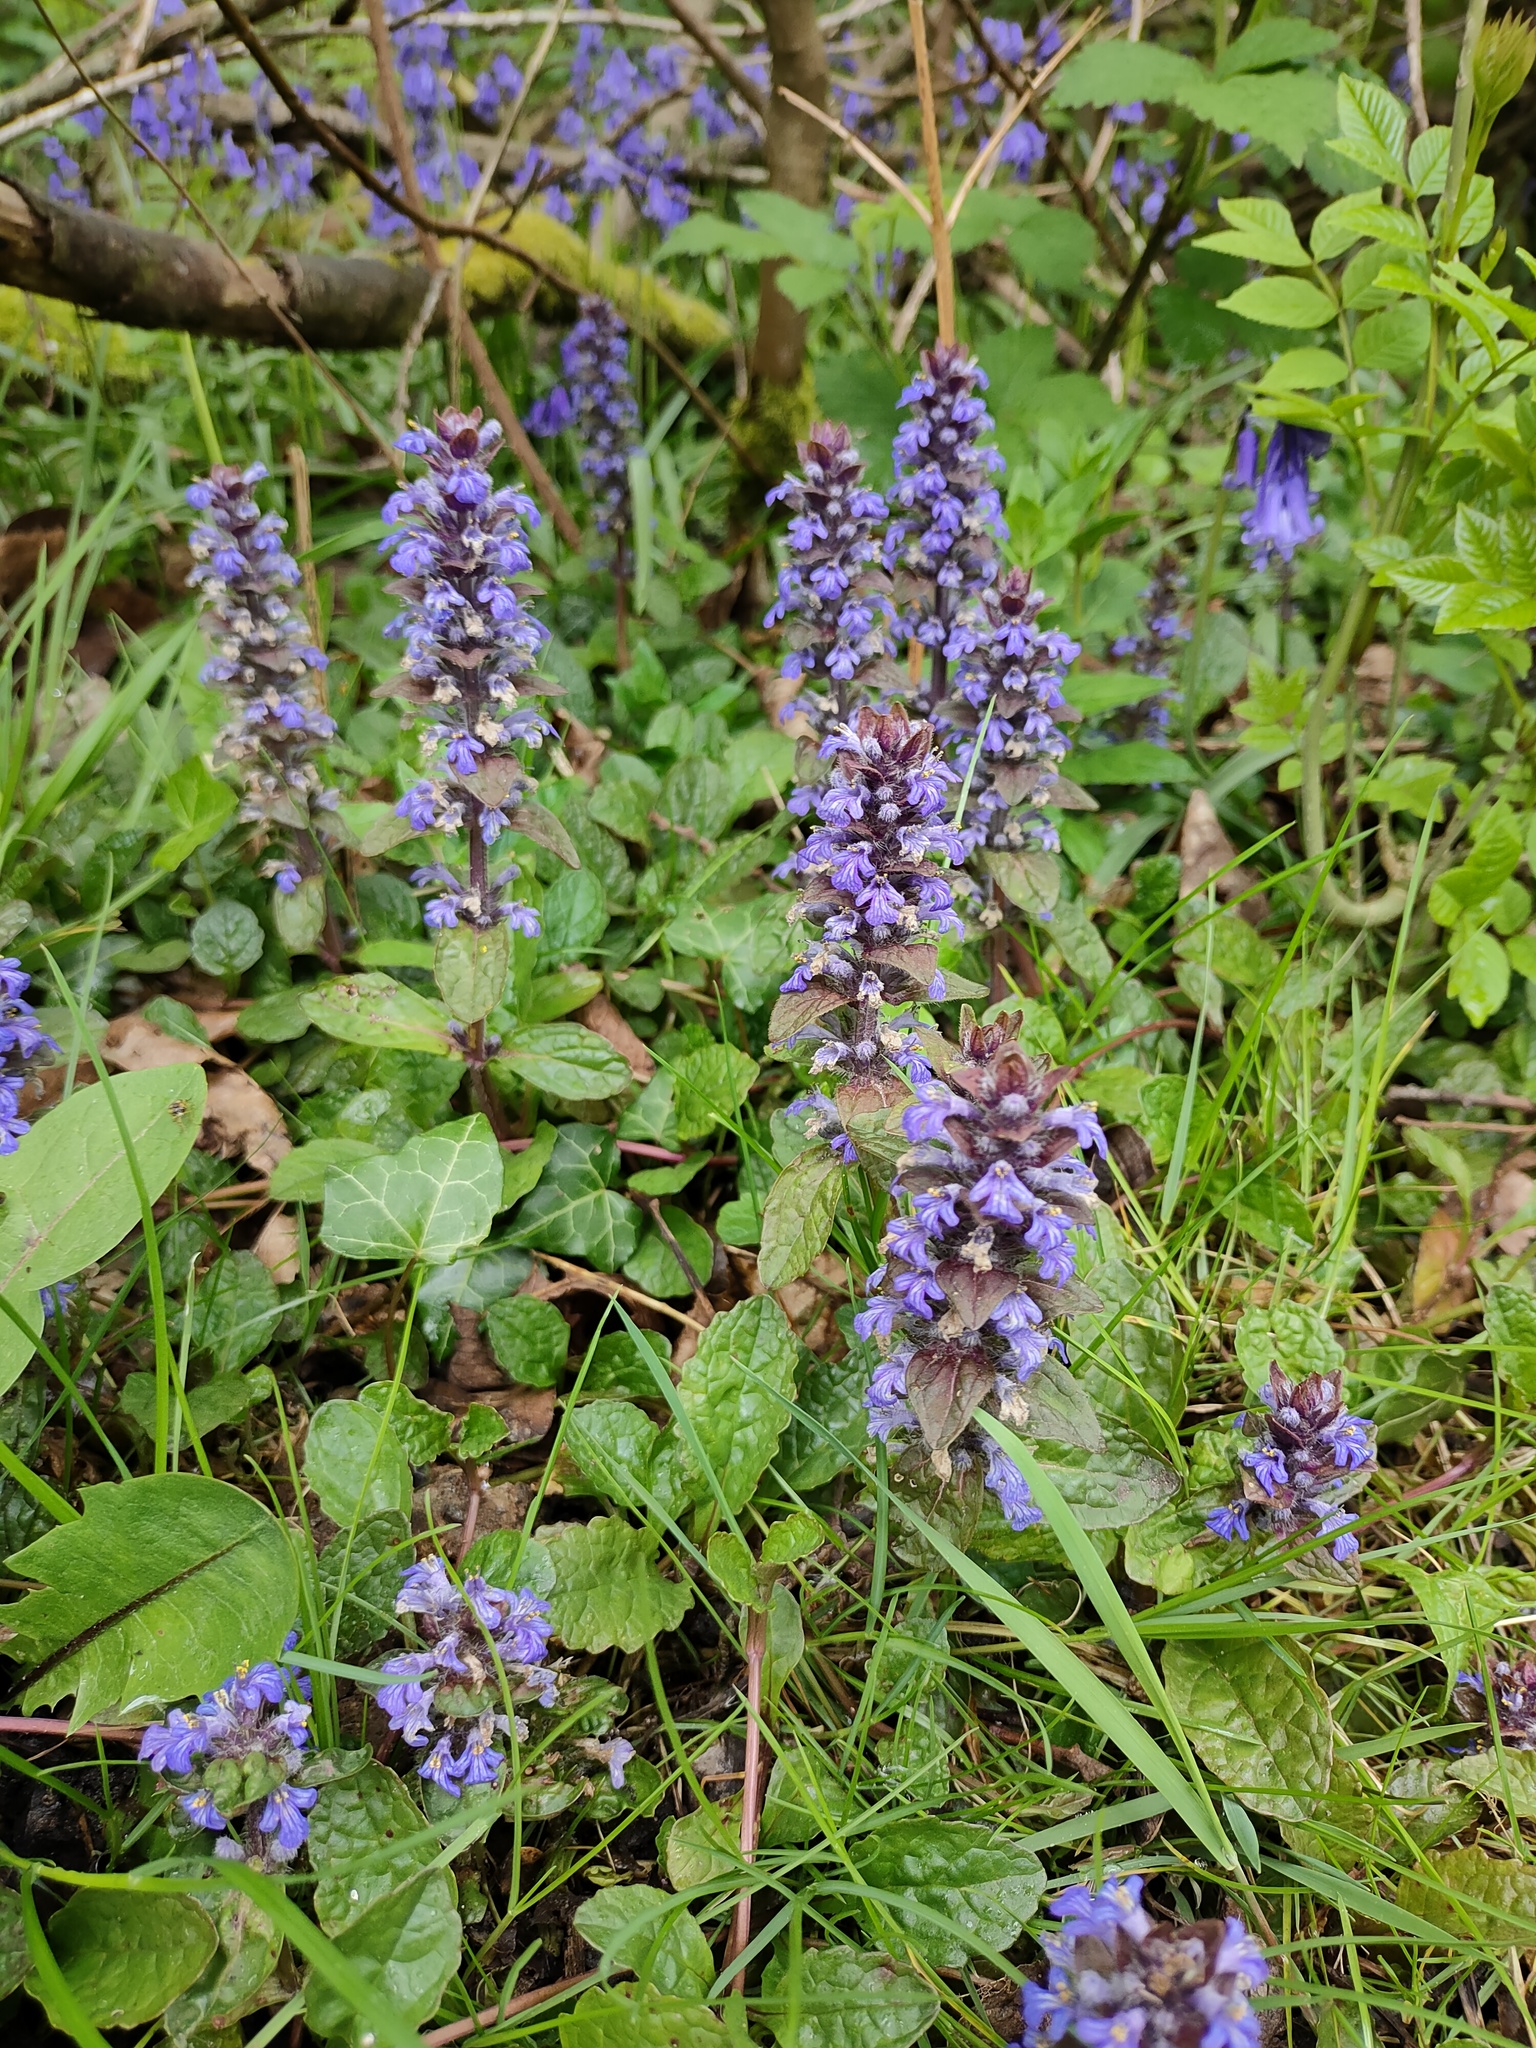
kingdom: Plantae
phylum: Tracheophyta
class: Magnoliopsida
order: Lamiales
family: Lamiaceae
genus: Ajuga
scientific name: Ajuga reptans
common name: Bugle
